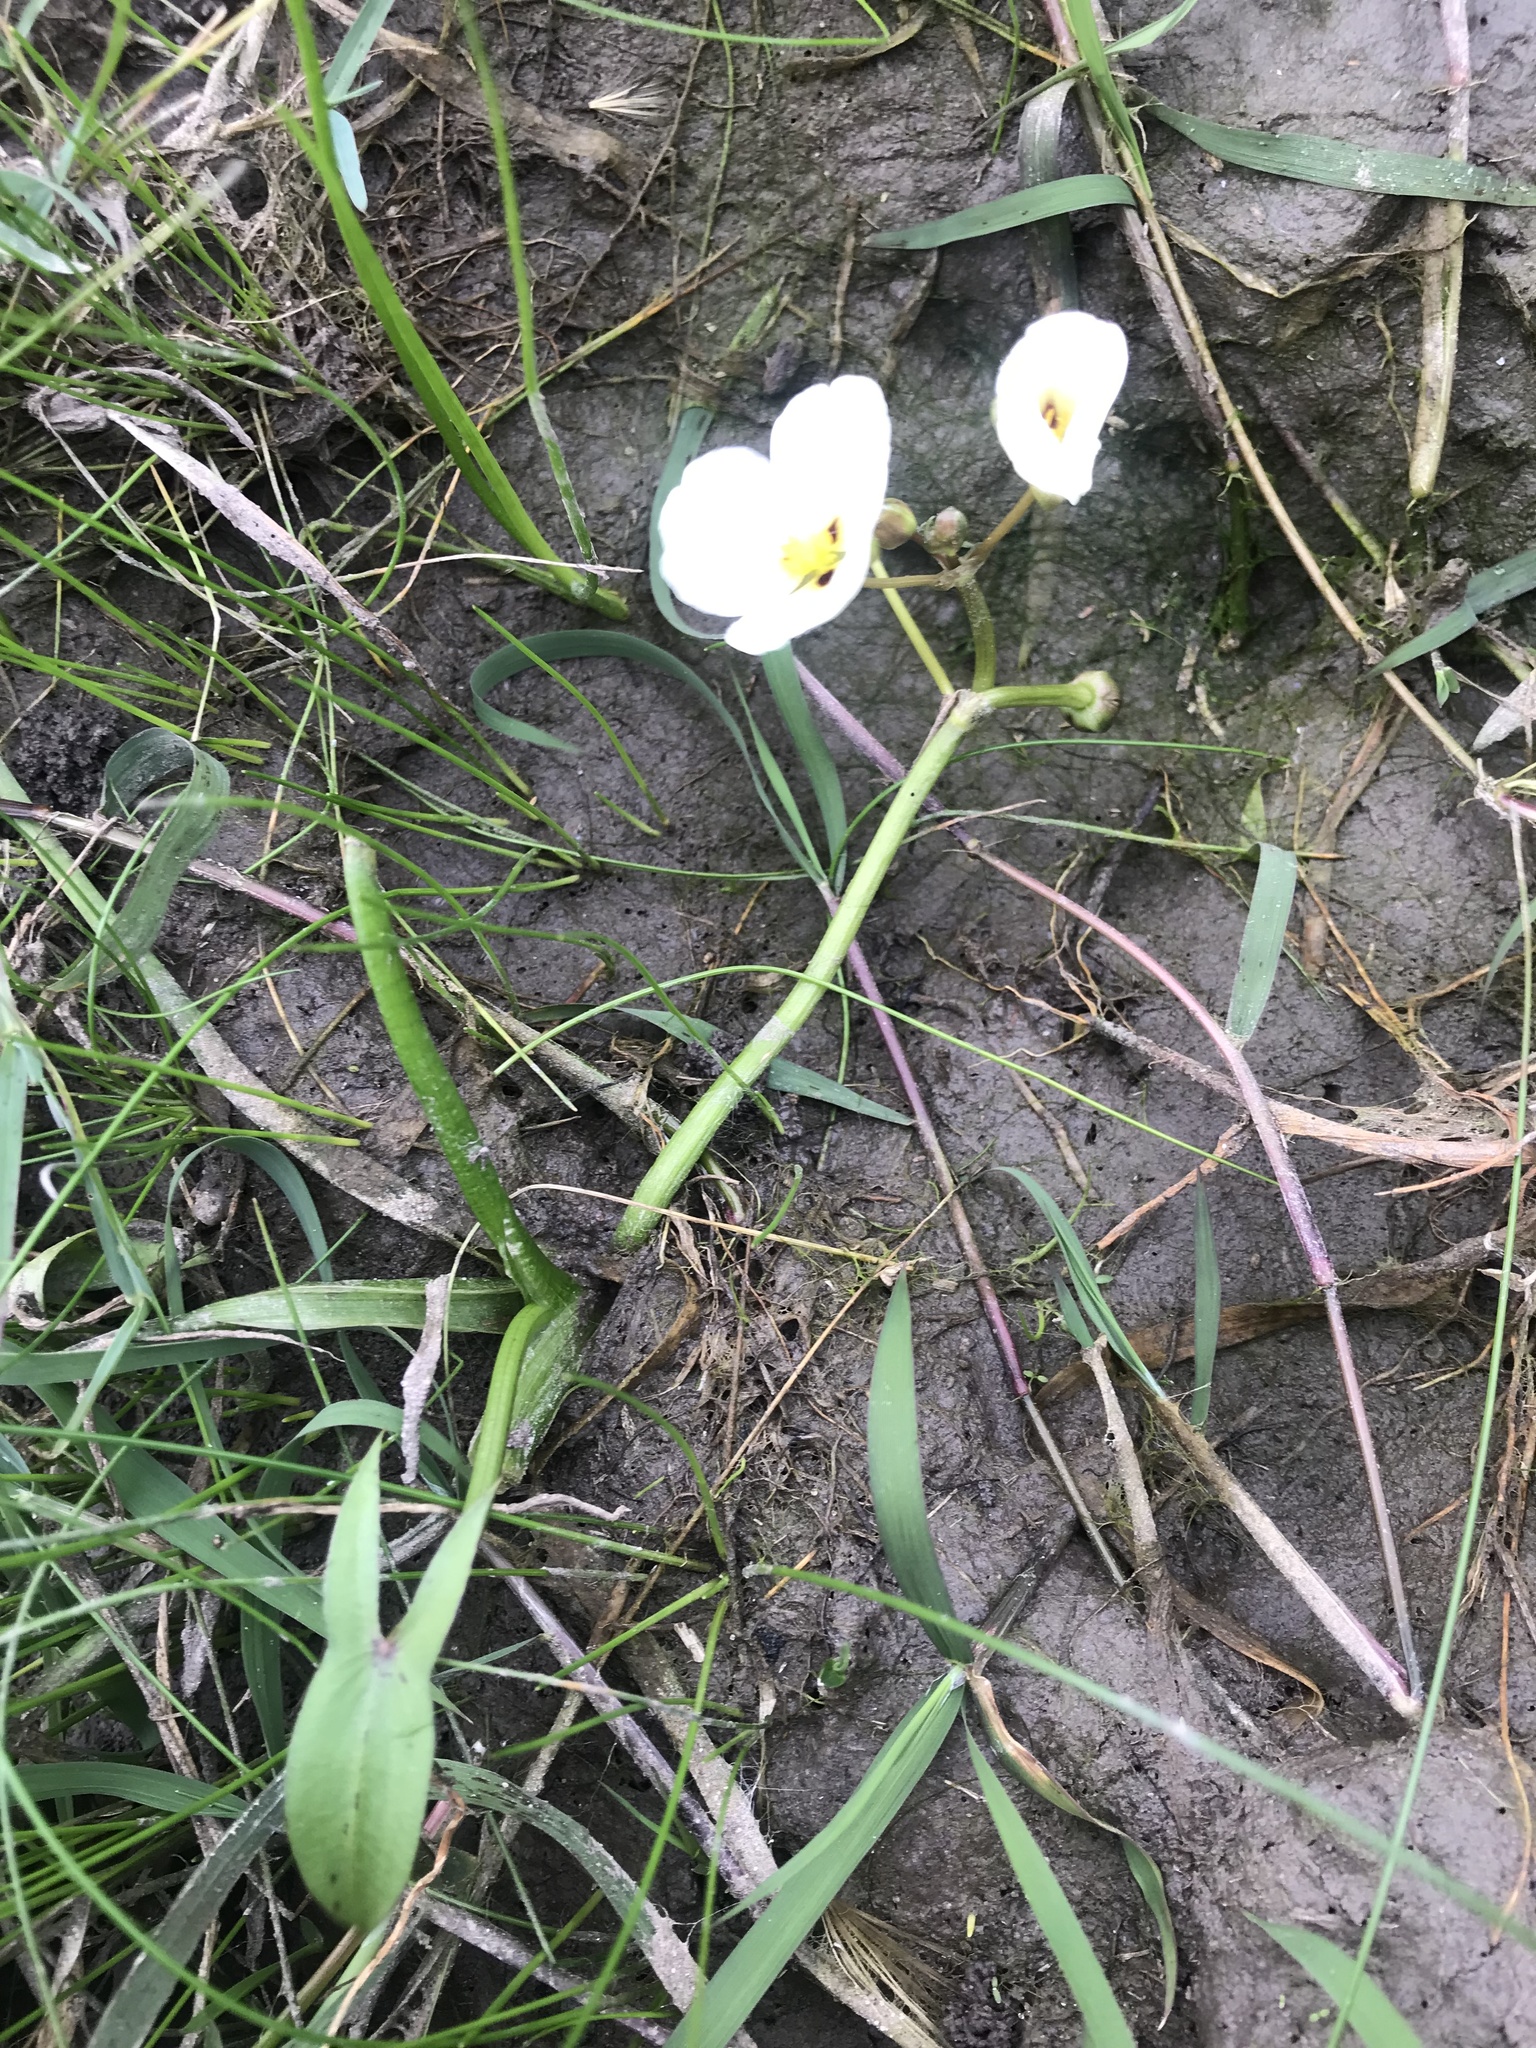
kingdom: Plantae
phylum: Tracheophyta
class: Liliopsida
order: Alismatales
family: Alismataceae
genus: Sagittaria
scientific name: Sagittaria montevidensis
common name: Giant arrowhead
